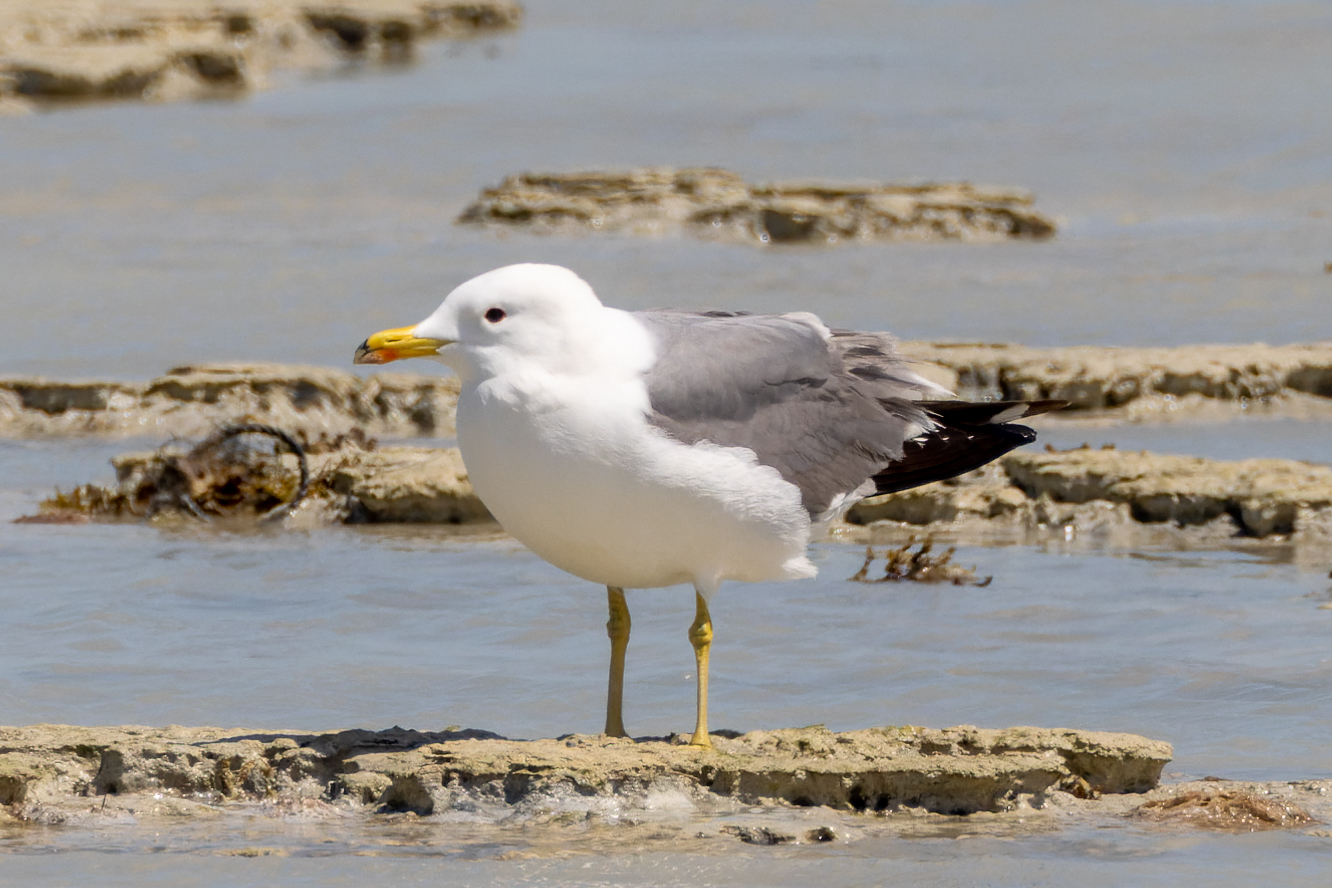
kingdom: Animalia
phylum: Chordata
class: Aves
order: Charadriiformes
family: Laridae
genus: Larus
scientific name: Larus armenicus
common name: Armenian gull
